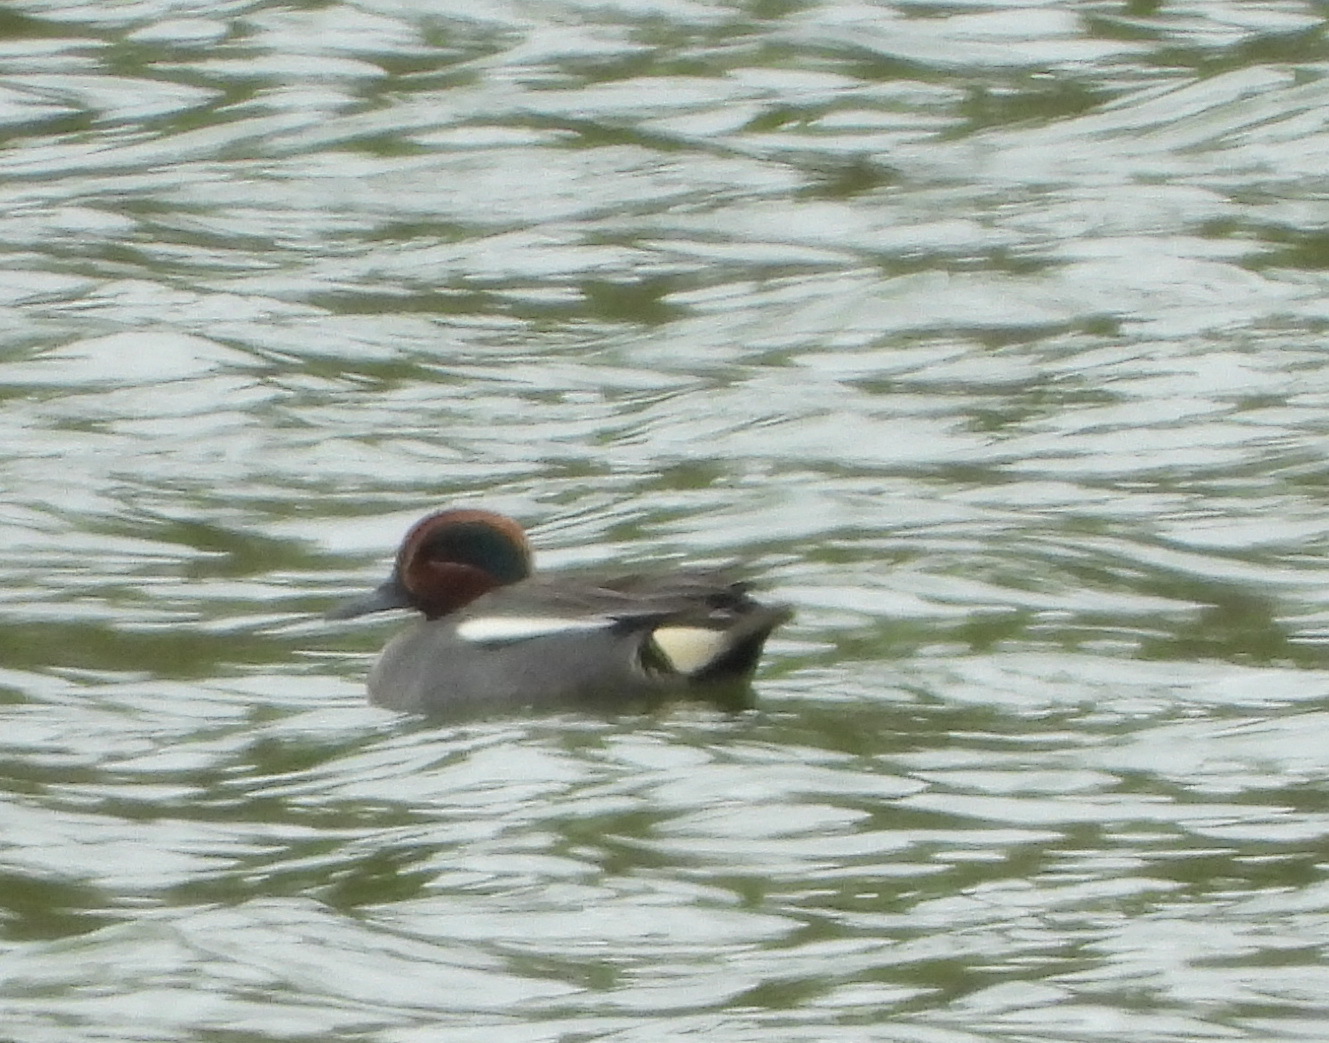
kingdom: Animalia
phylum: Chordata
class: Aves
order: Anseriformes
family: Anatidae
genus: Anas
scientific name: Anas crecca
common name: Eurasian teal
